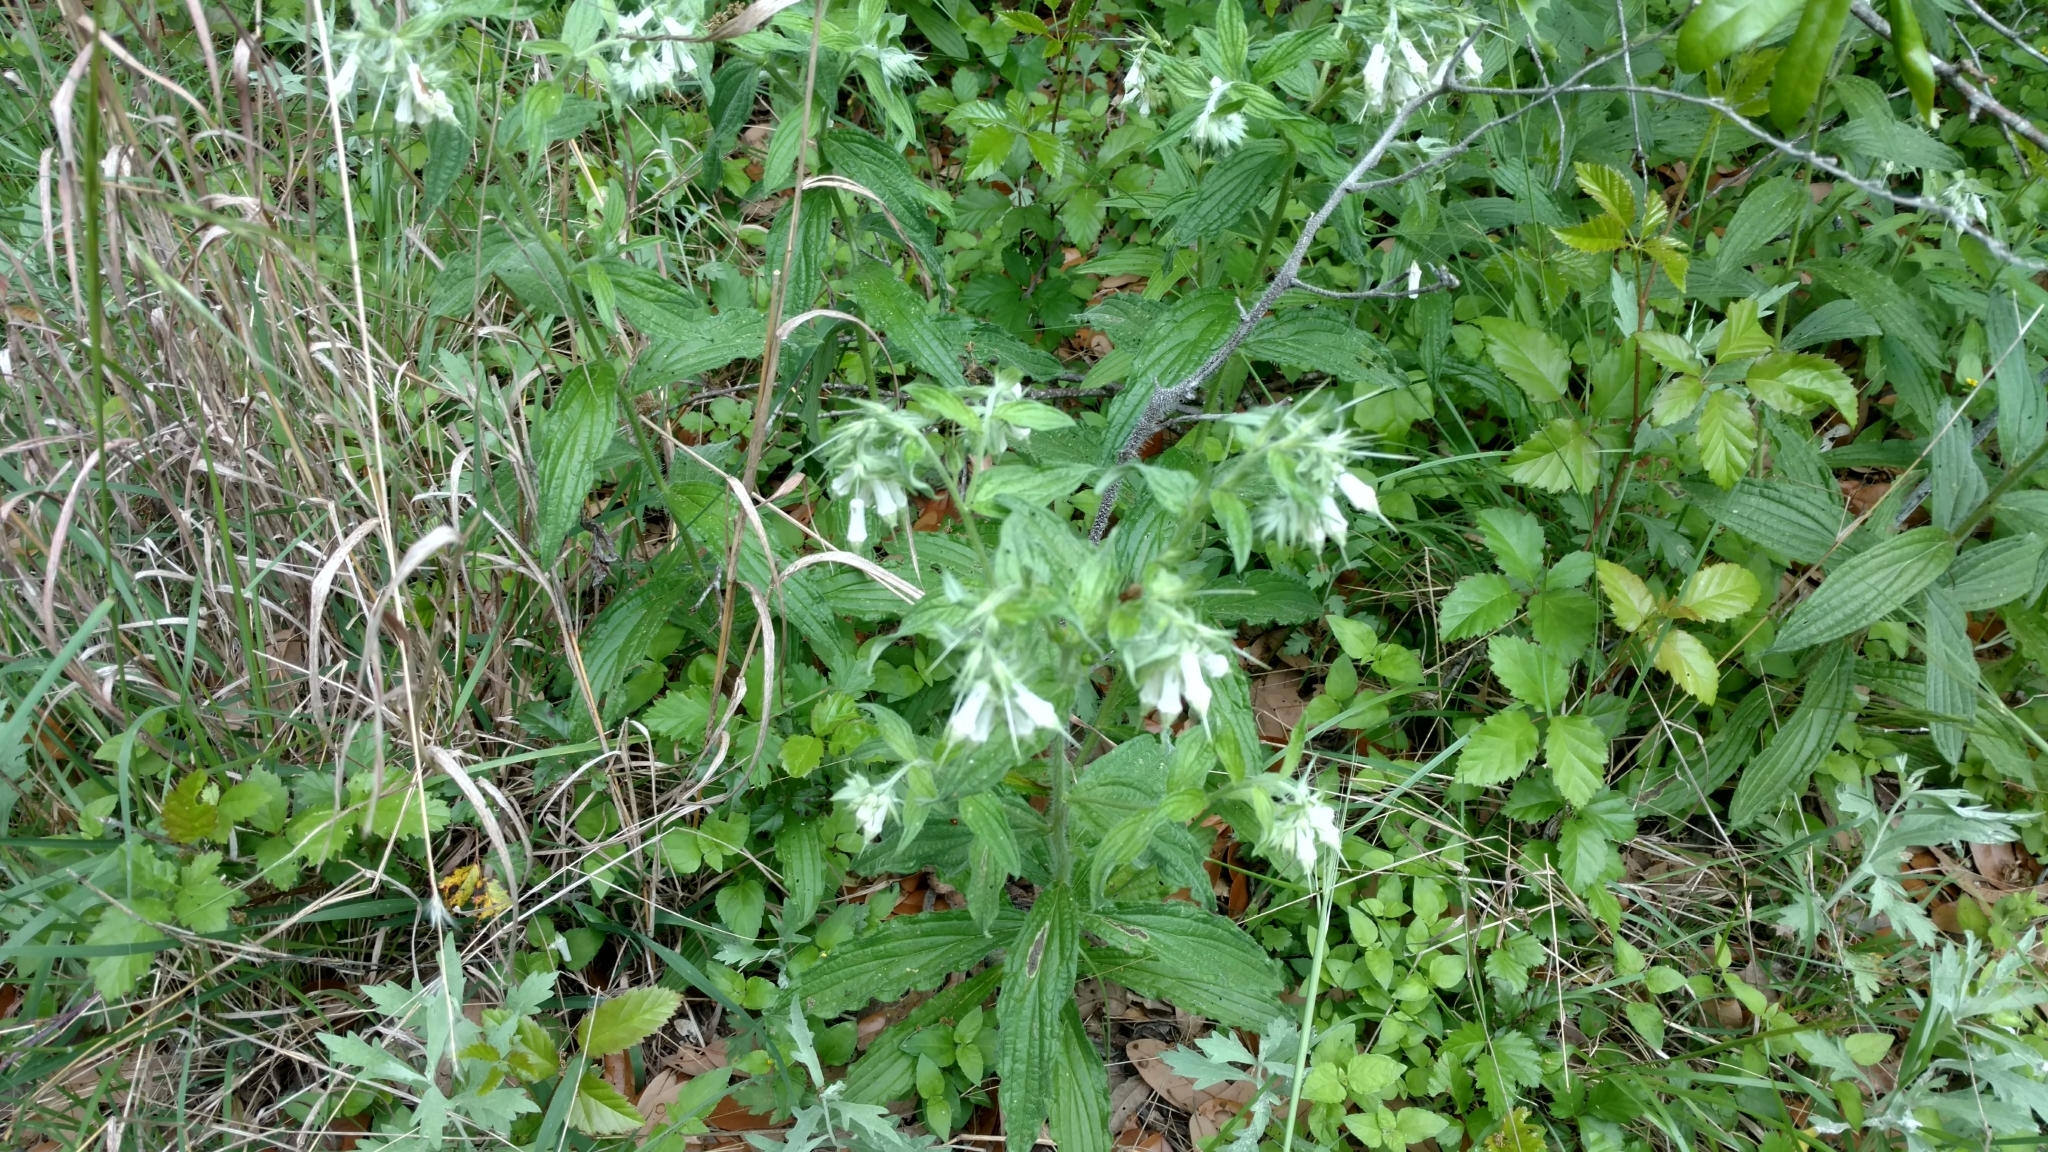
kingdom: Plantae
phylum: Tracheophyta
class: Magnoliopsida
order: Boraginales
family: Boraginaceae
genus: Lithospermum
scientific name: Lithospermum caroliniense
